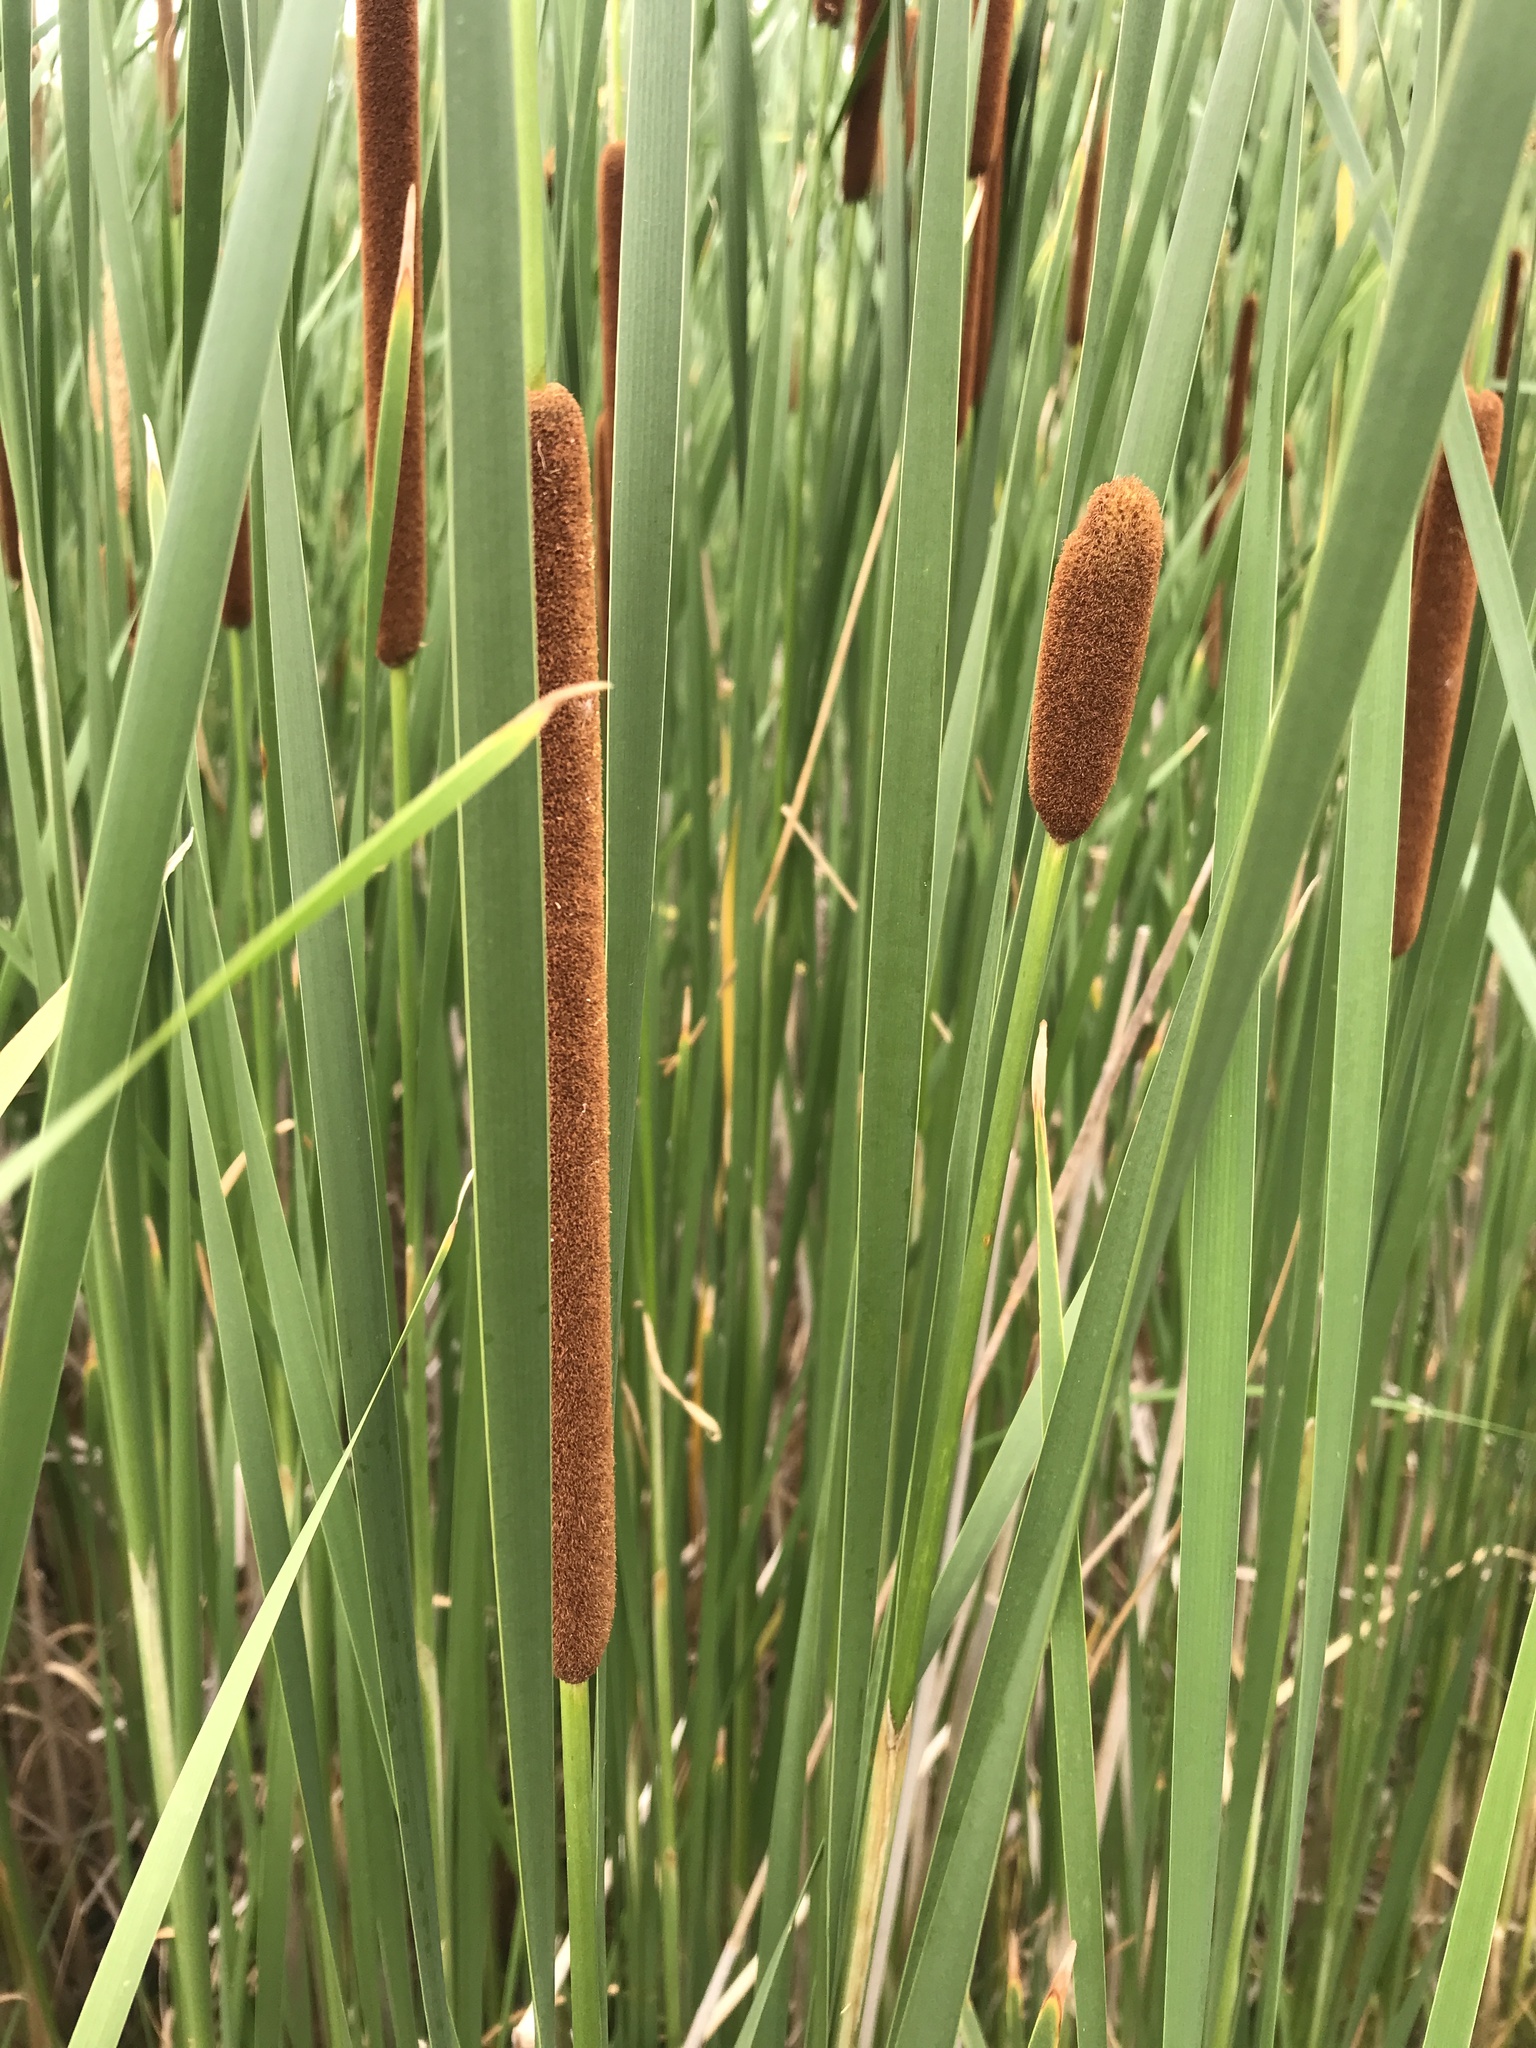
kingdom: Plantae
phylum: Tracheophyta
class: Liliopsida
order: Poales
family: Typhaceae
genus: Typha
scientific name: Typha angustifolia
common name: Lesser bulrush
